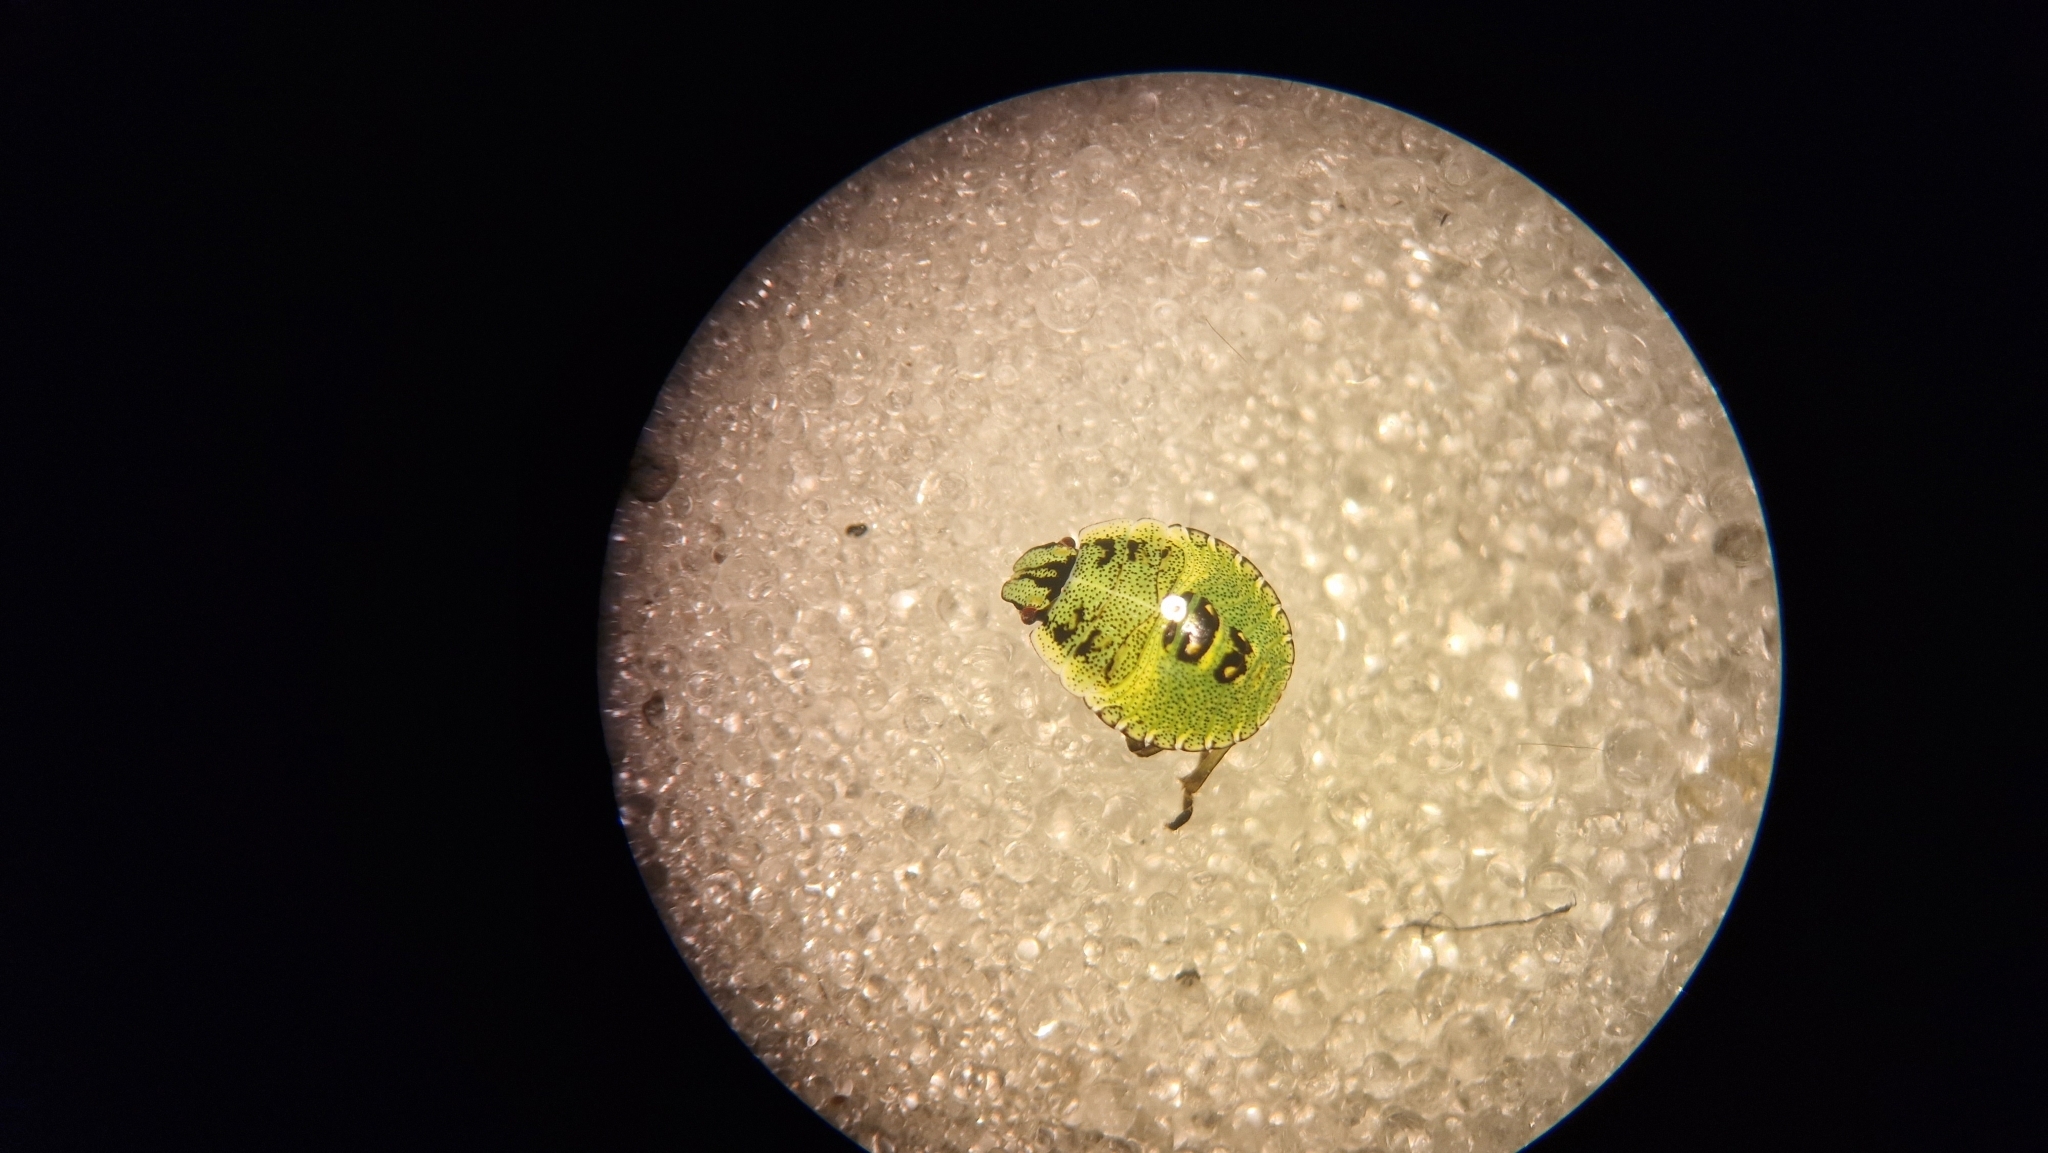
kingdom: Animalia
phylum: Arthropoda
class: Insecta
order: Hemiptera
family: Pentatomidae
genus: Palomena
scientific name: Palomena prasina
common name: Green shieldbug
